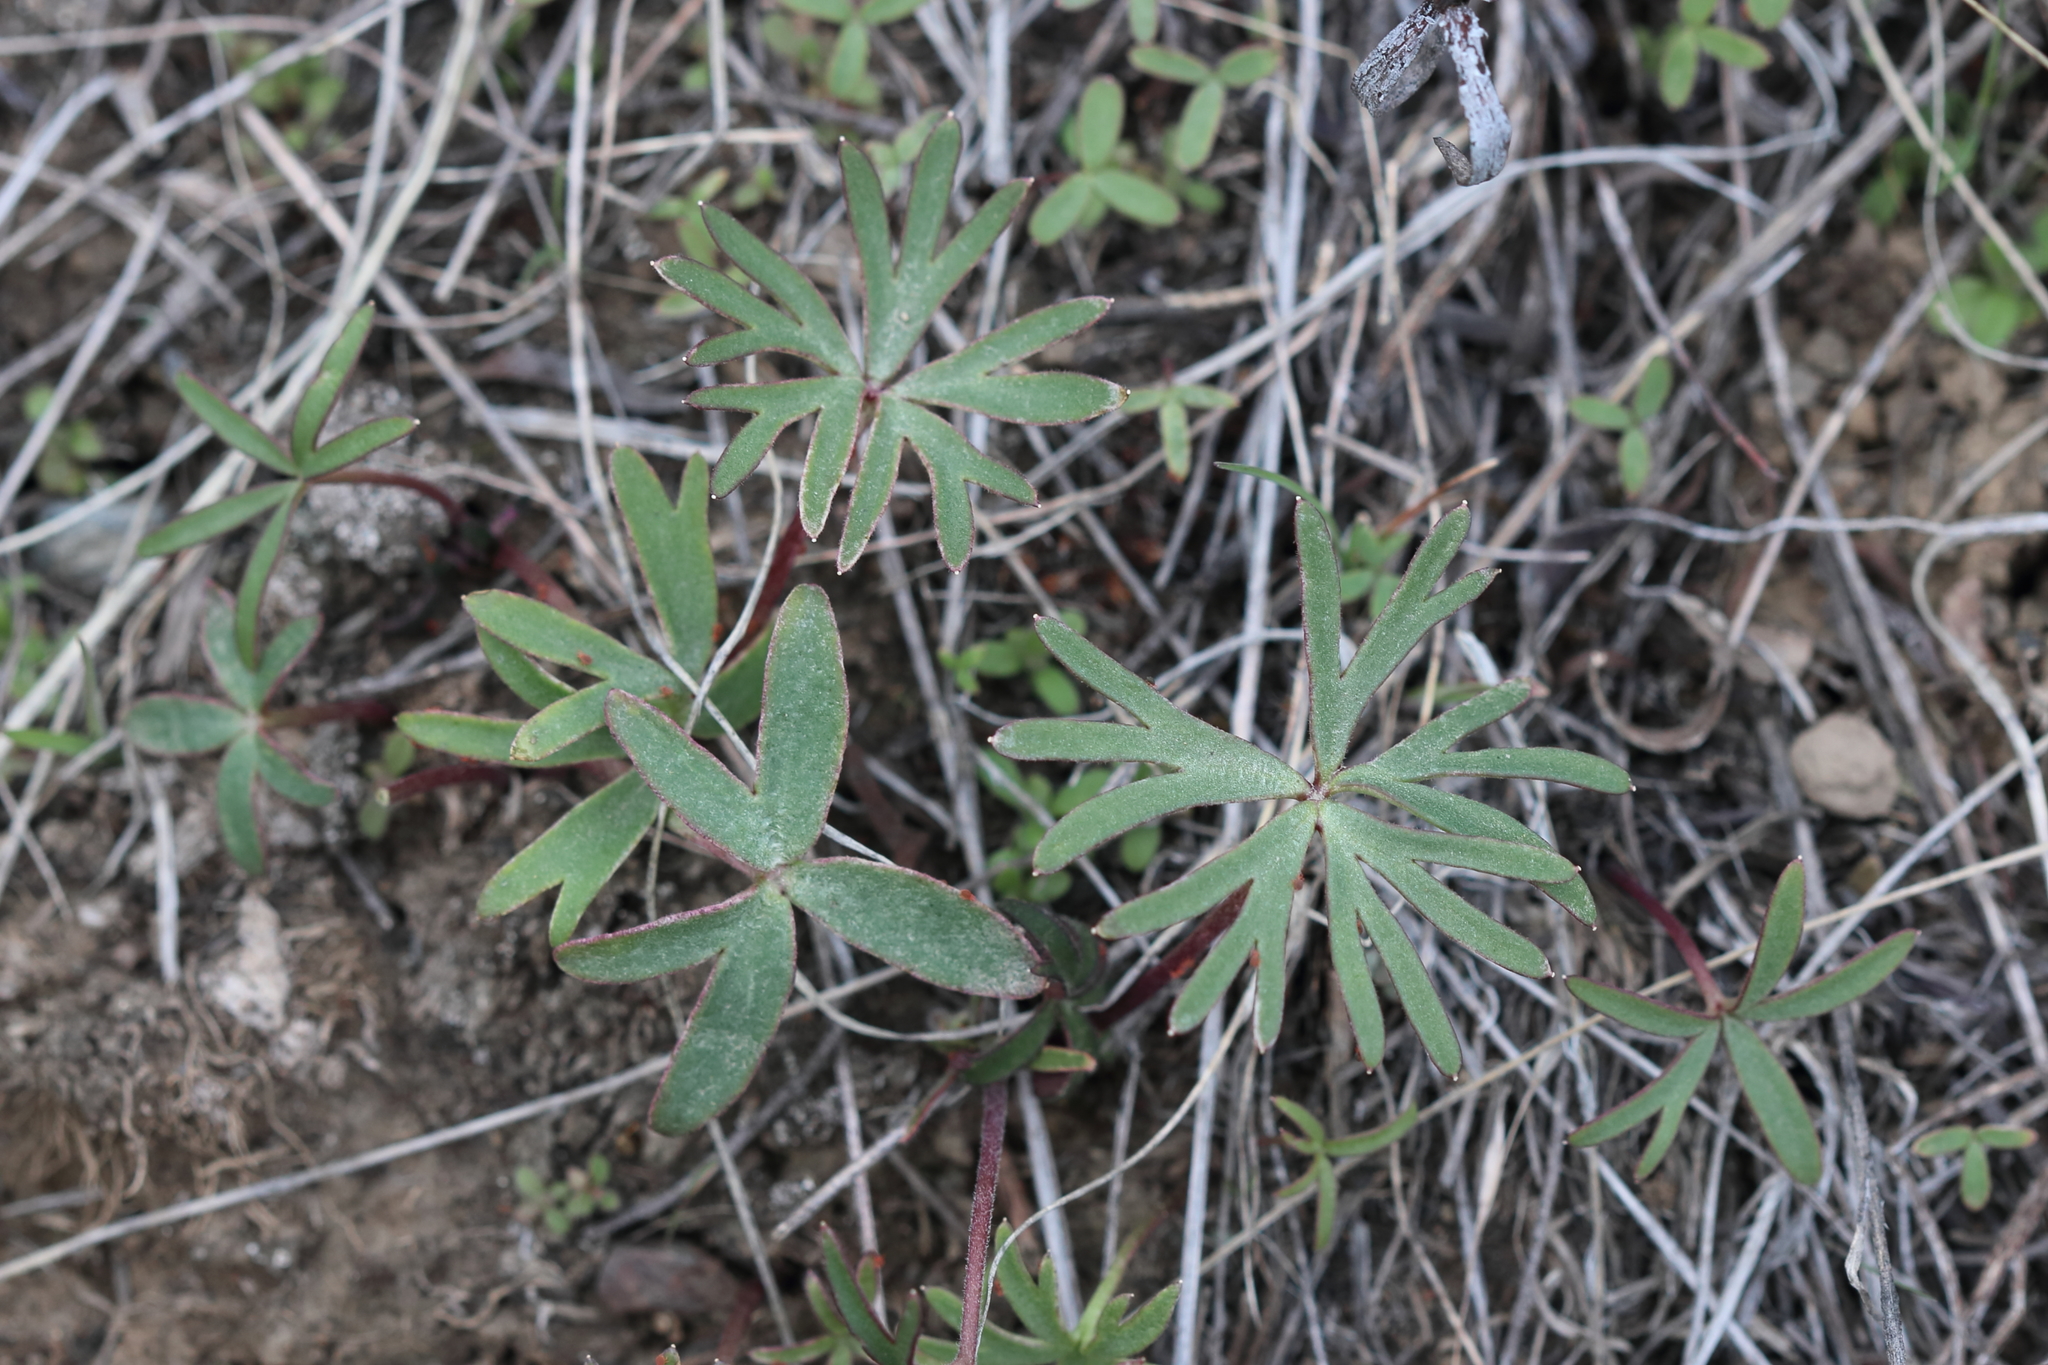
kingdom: Plantae
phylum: Tracheophyta
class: Magnoliopsida
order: Ranunculales
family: Ranunculaceae
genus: Delphinium
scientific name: Delphinium nuttallianum
